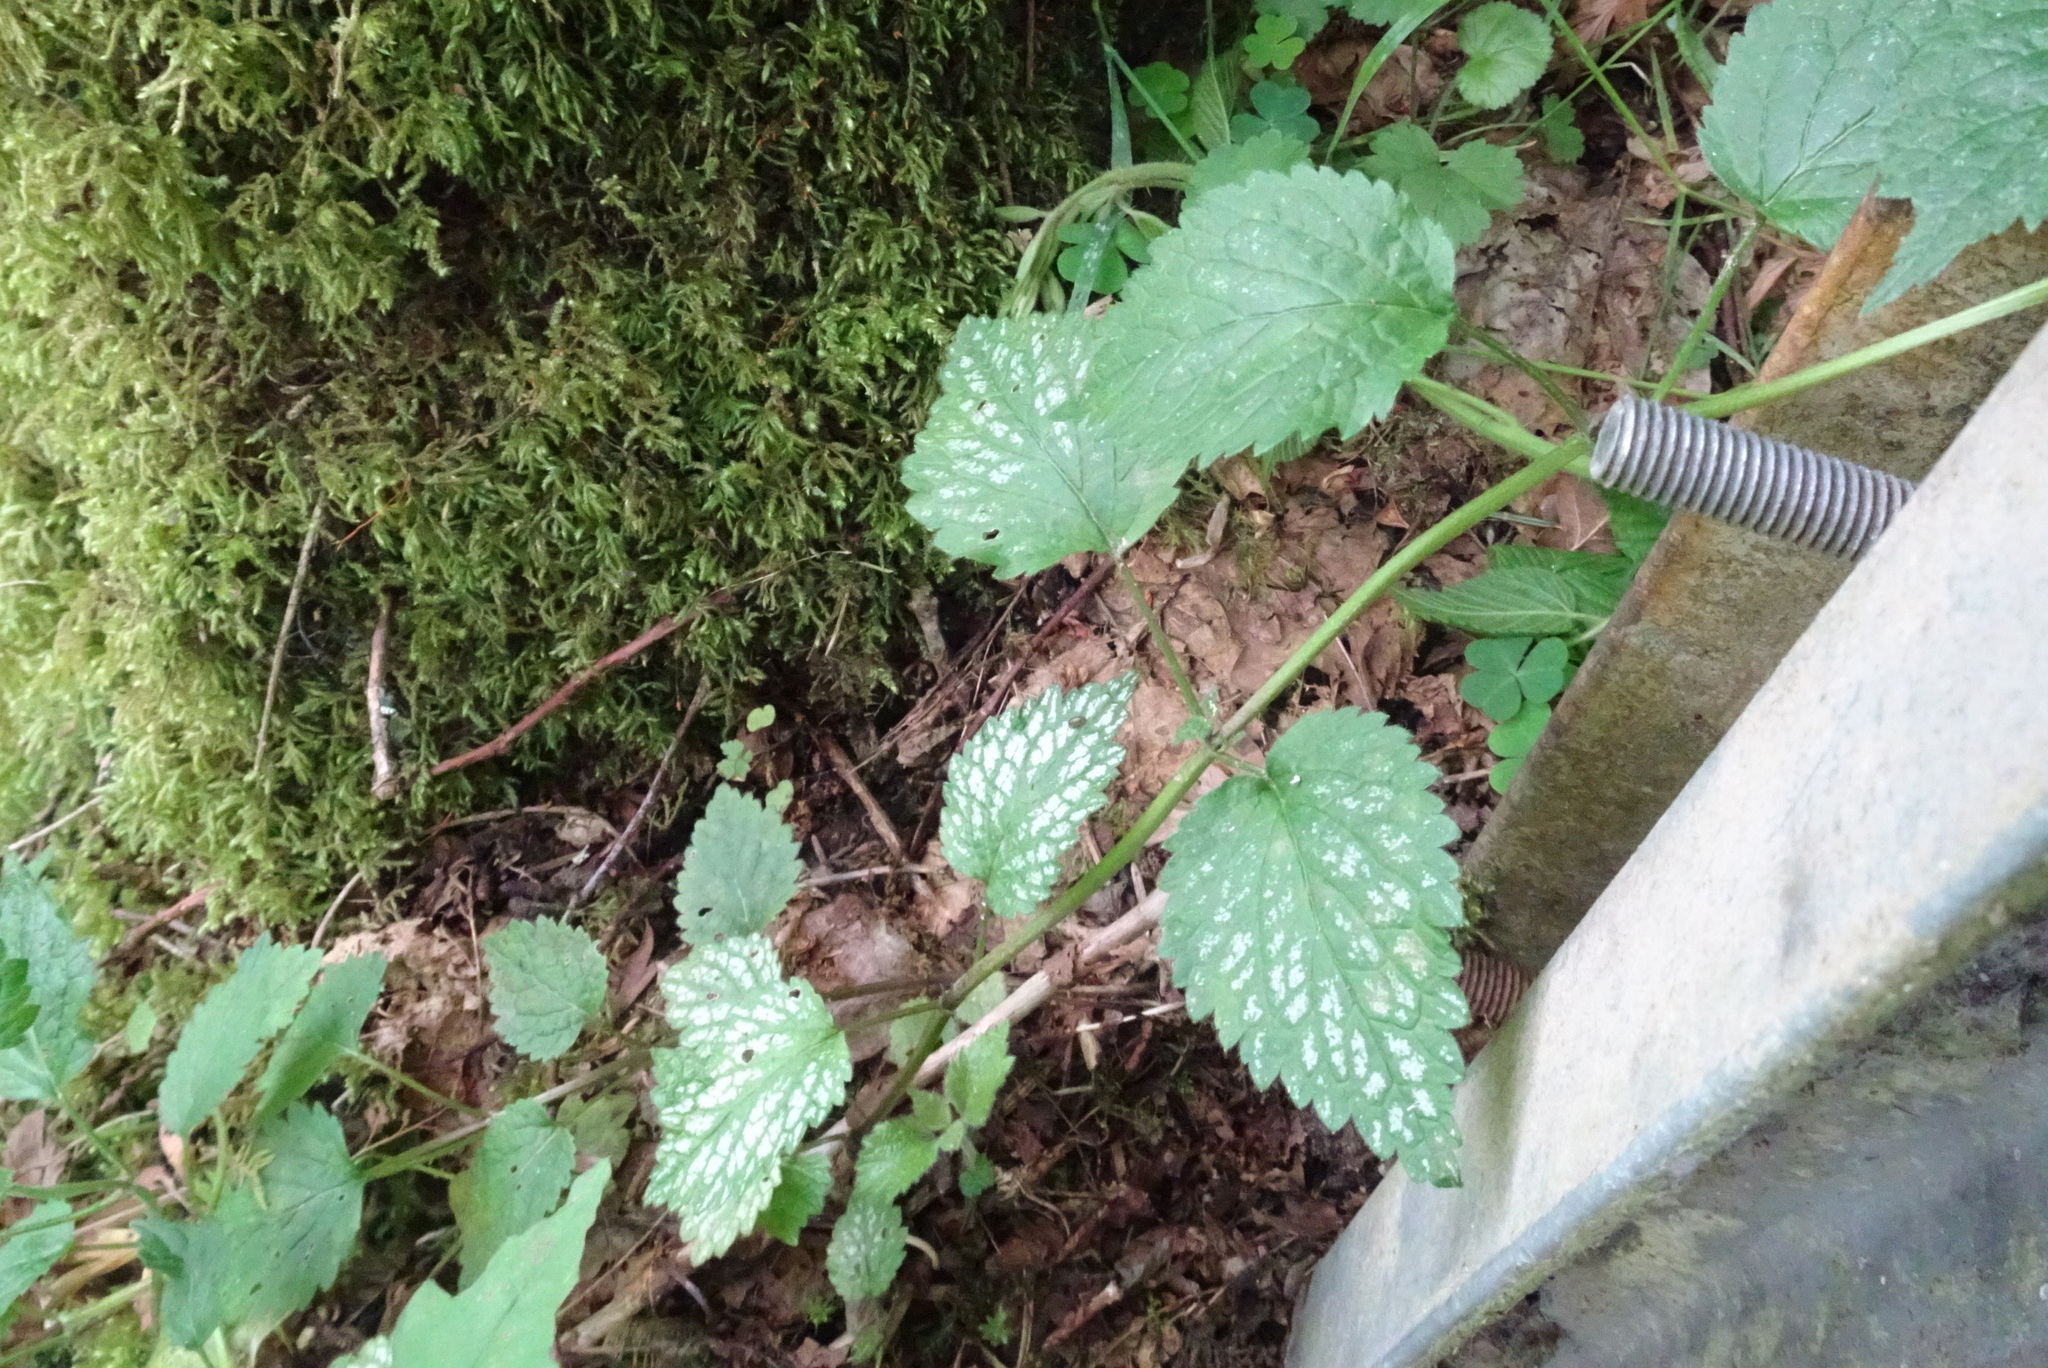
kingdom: Plantae
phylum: Tracheophyta
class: Magnoliopsida
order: Lamiales
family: Lamiaceae
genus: Lamium
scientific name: Lamium galeobdolon
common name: Yellow archangel
